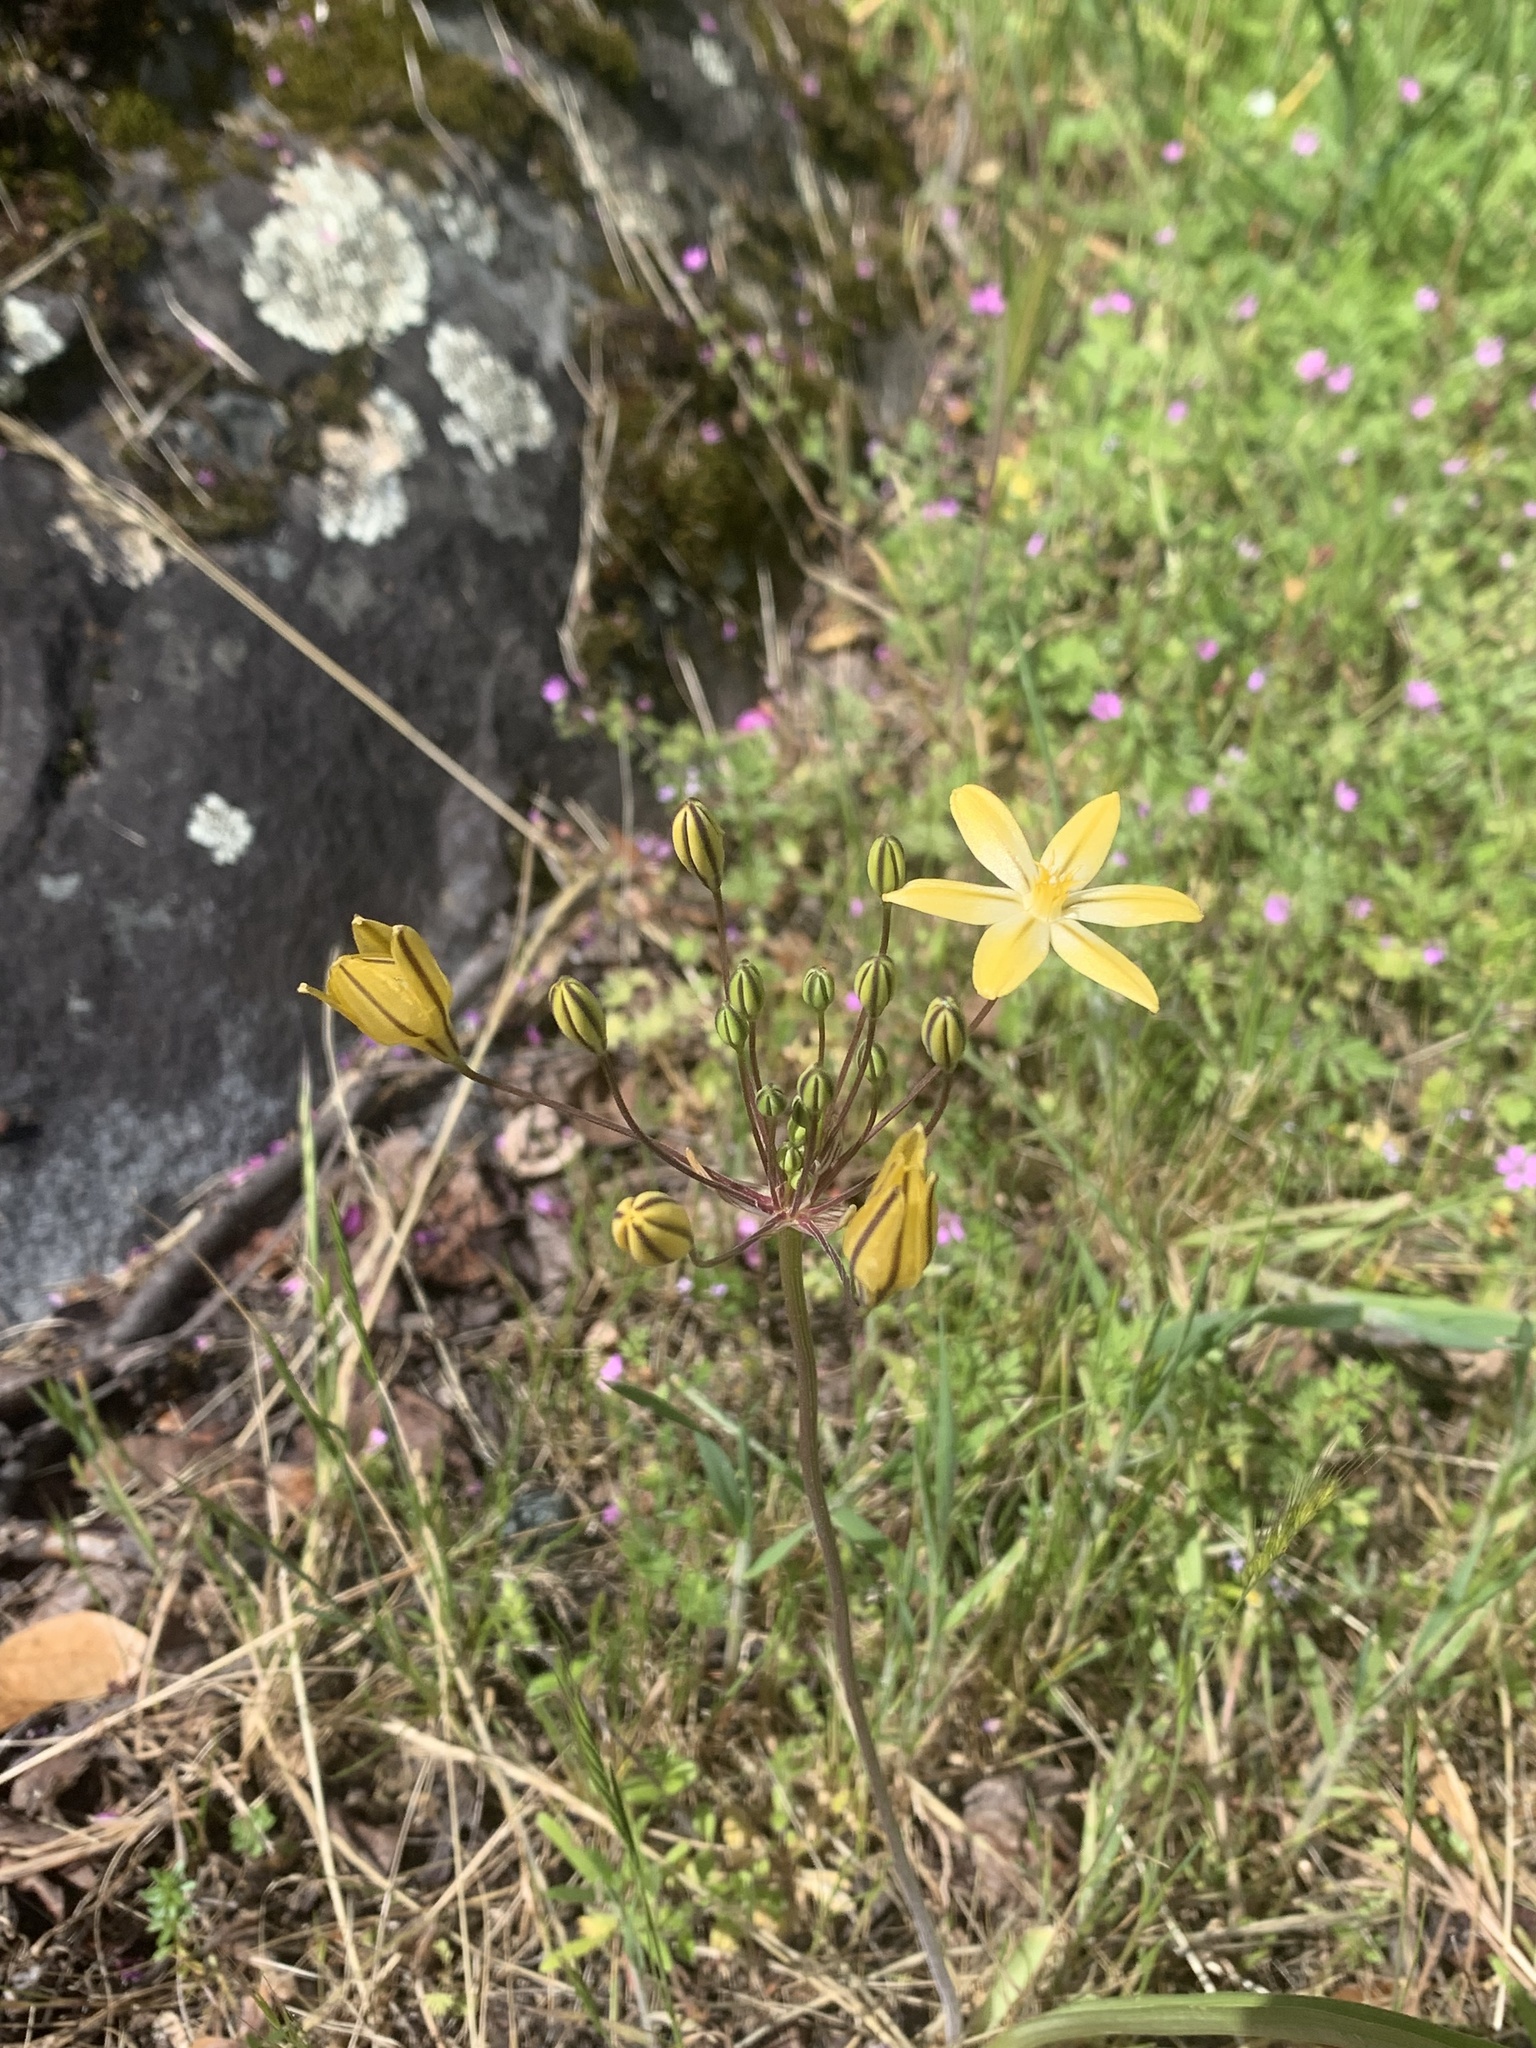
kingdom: Plantae
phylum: Tracheophyta
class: Liliopsida
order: Asparagales
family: Asparagaceae
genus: Triteleia
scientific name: Triteleia ixioides
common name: Yellow-brodiaea
